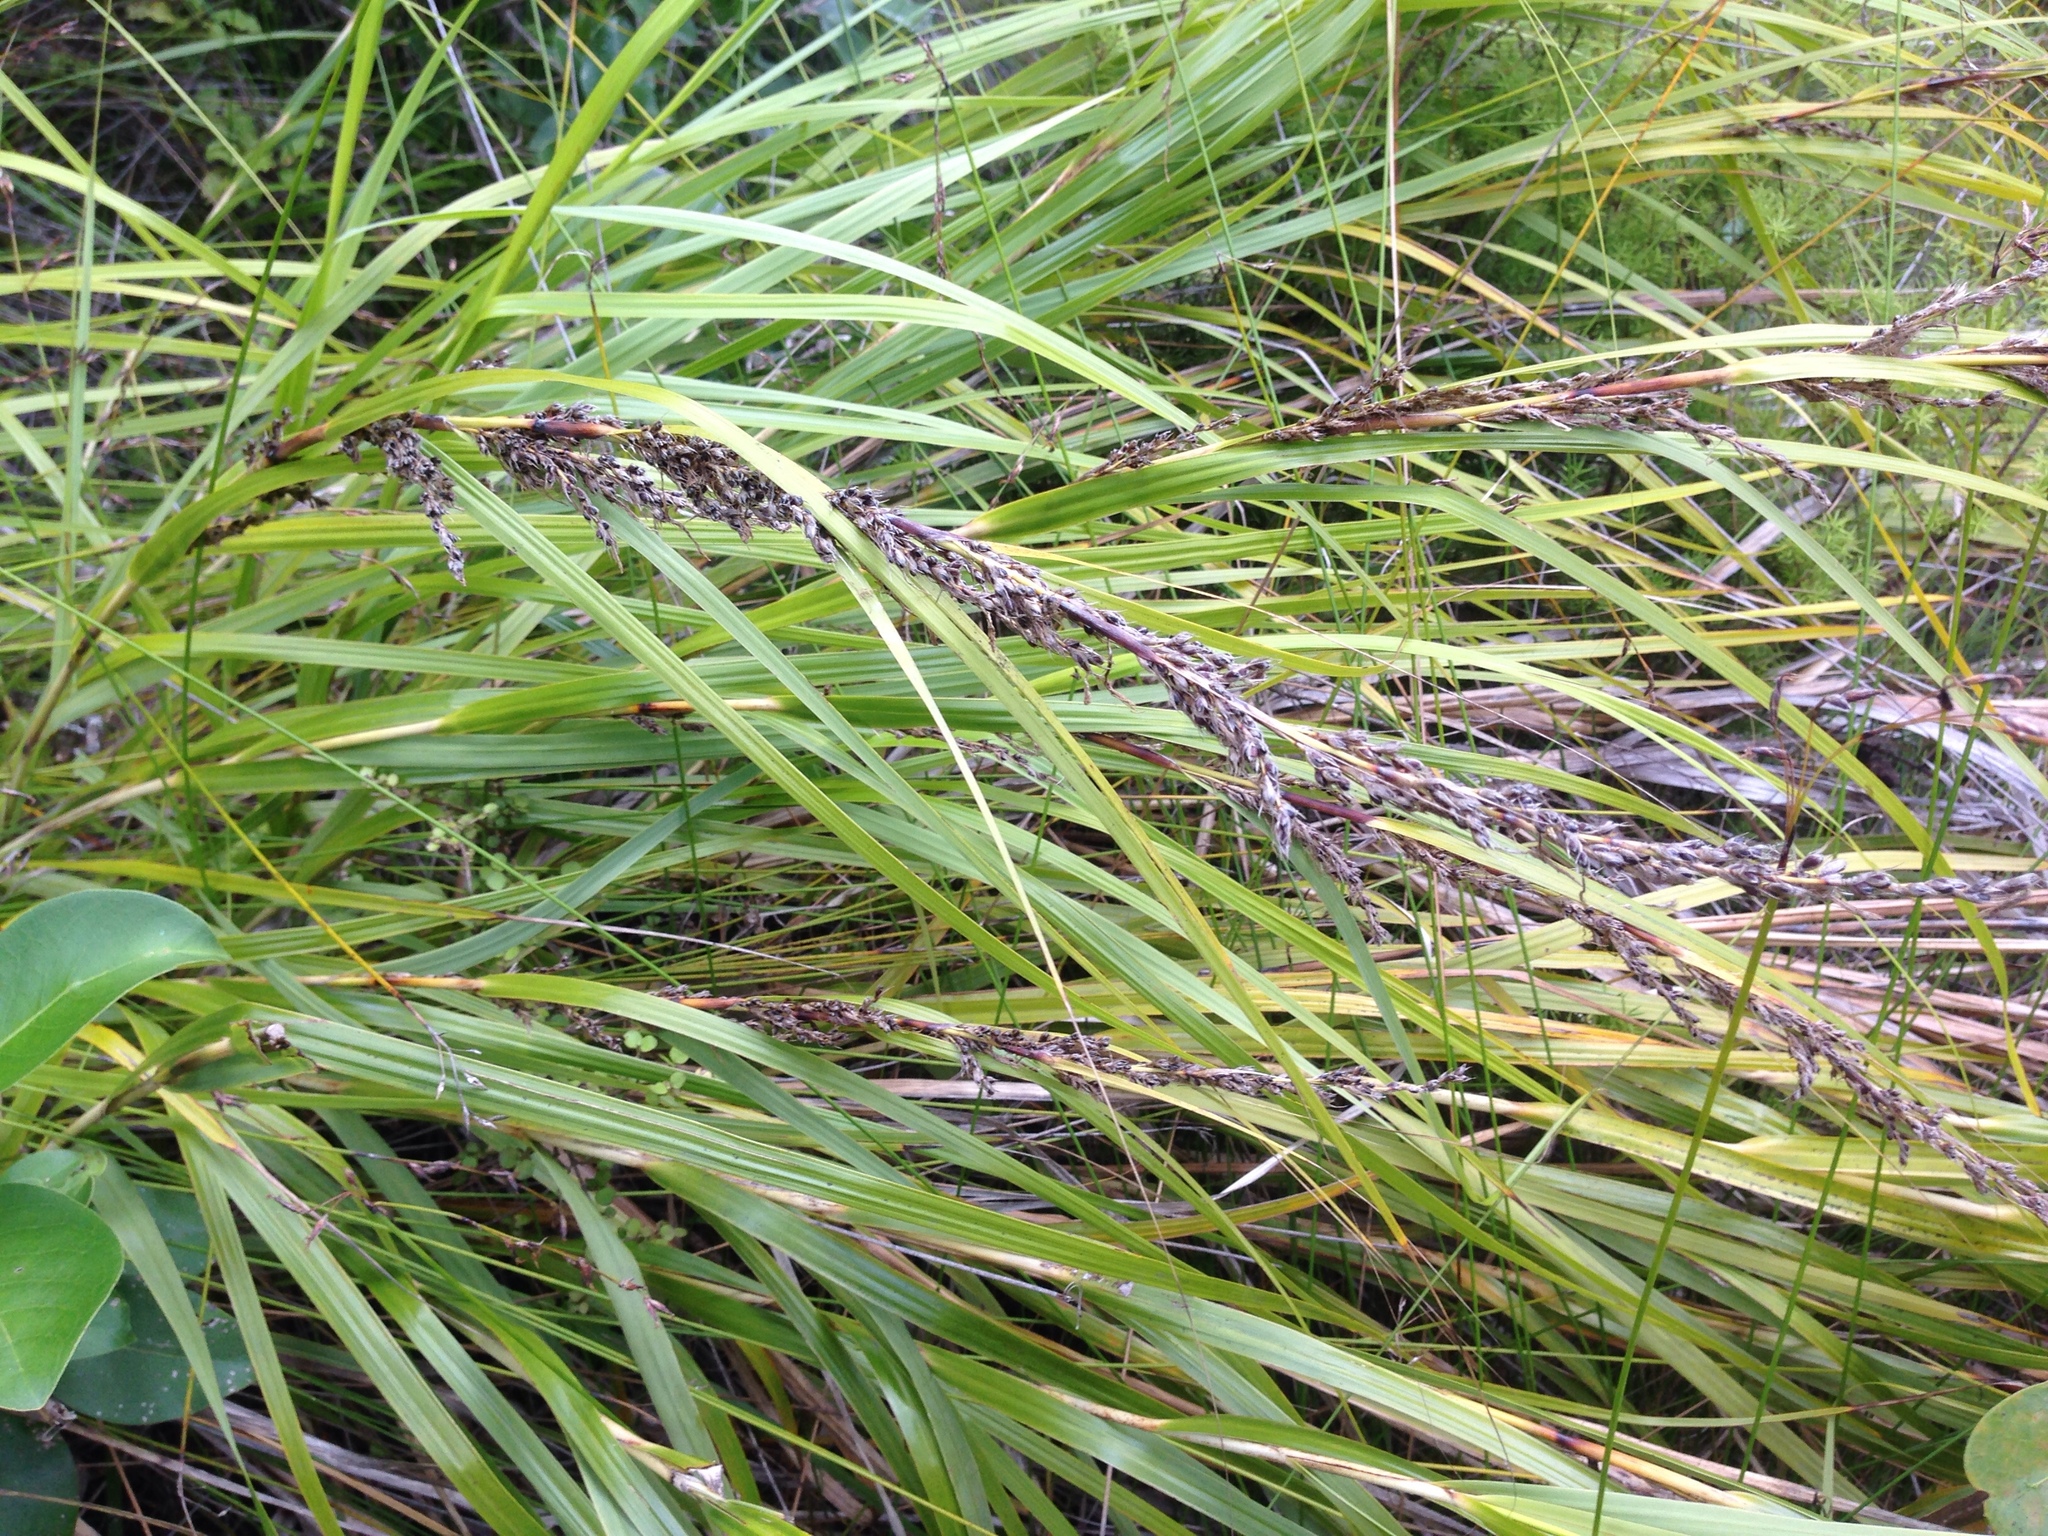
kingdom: Plantae
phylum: Tracheophyta
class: Liliopsida
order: Poales
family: Cyperaceae
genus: Gahnia
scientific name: Gahnia lacera
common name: Sawsedge
